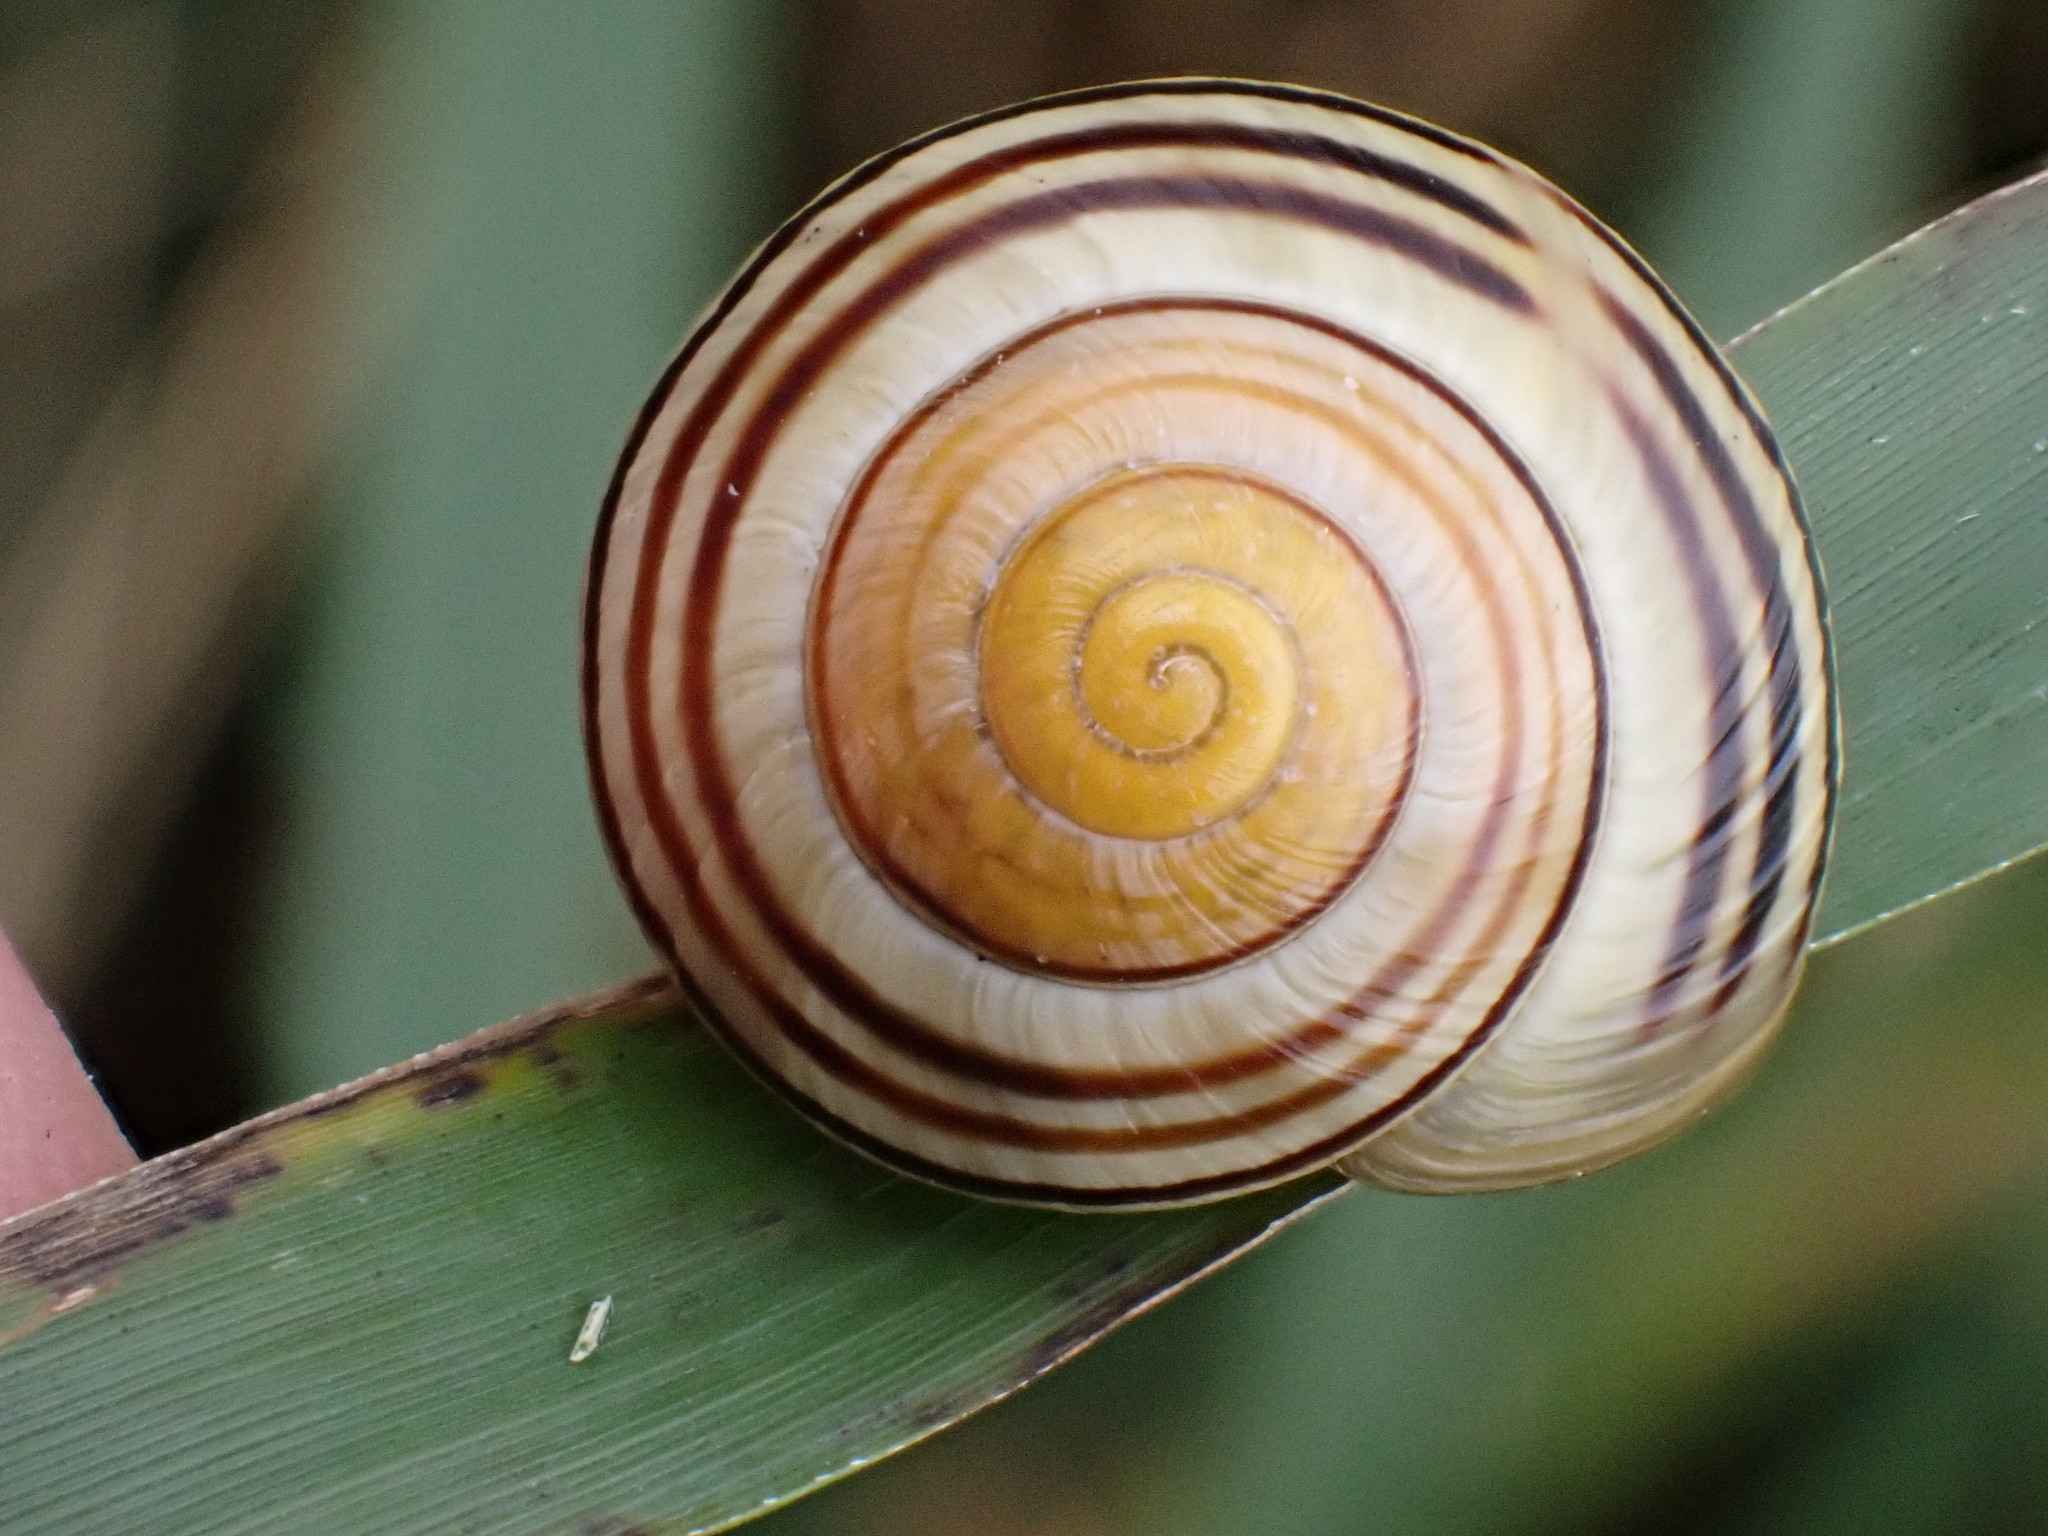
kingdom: Animalia
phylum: Mollusca
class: Gastropoda
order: Stylommatophora
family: Helicidae
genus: Cepaea
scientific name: Cepaea
